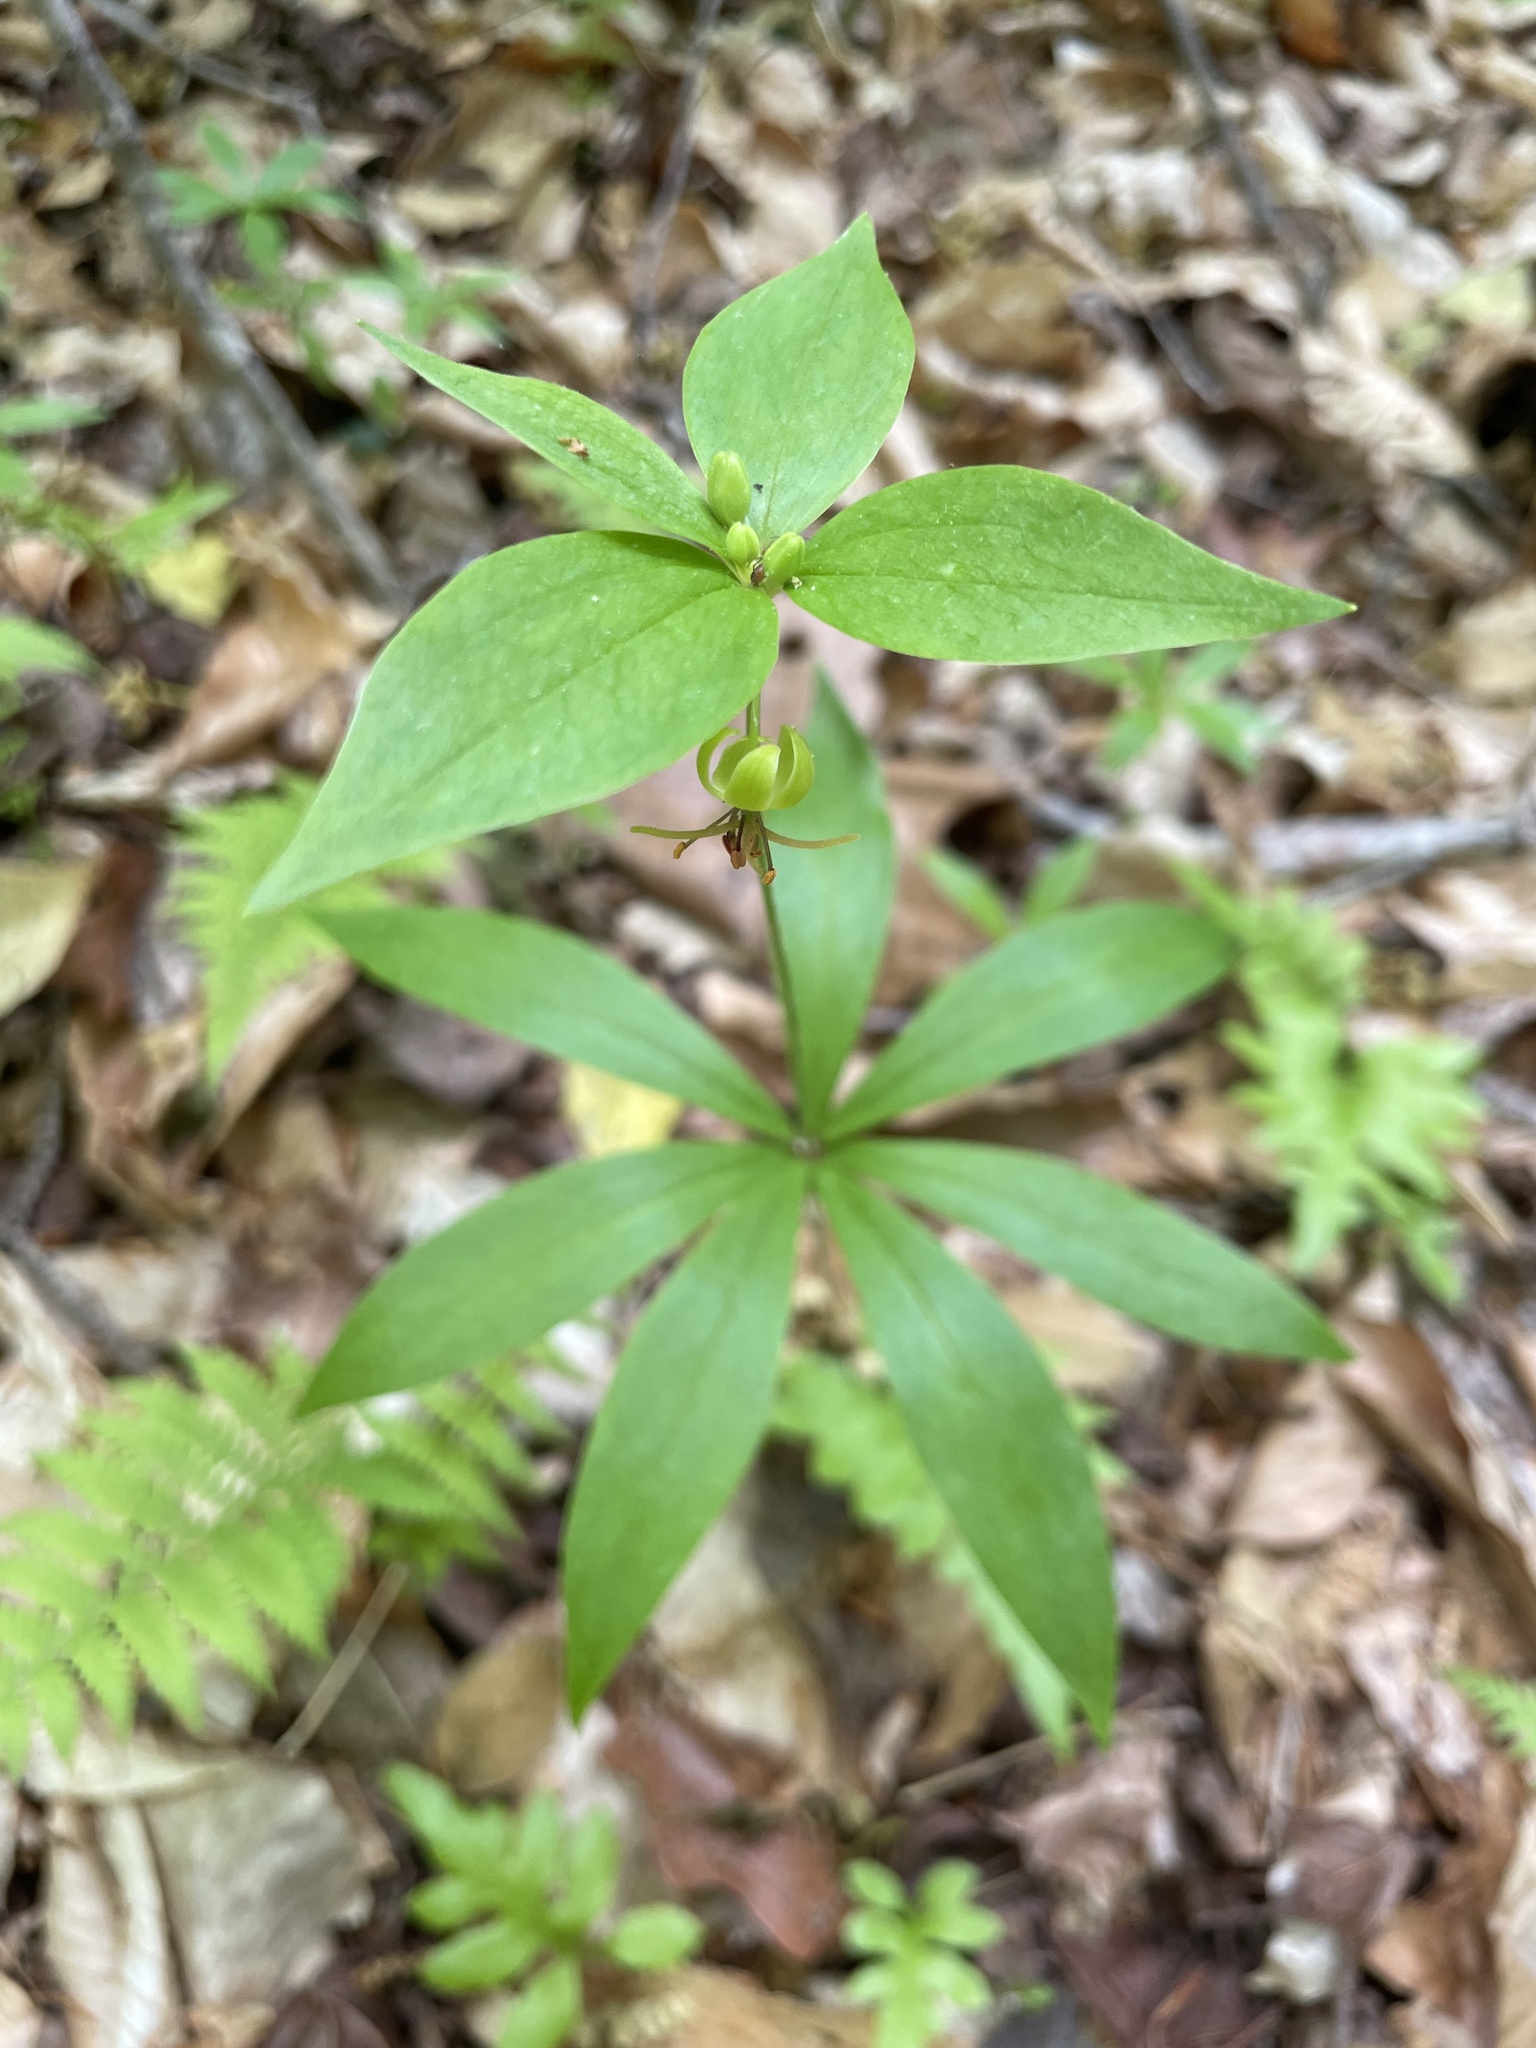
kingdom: Plantae
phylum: Tracheophyta
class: Liliopsida
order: Liliales
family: Liliaceae
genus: Medeola
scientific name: Medeola virginiana
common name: Indian cucumber-root
